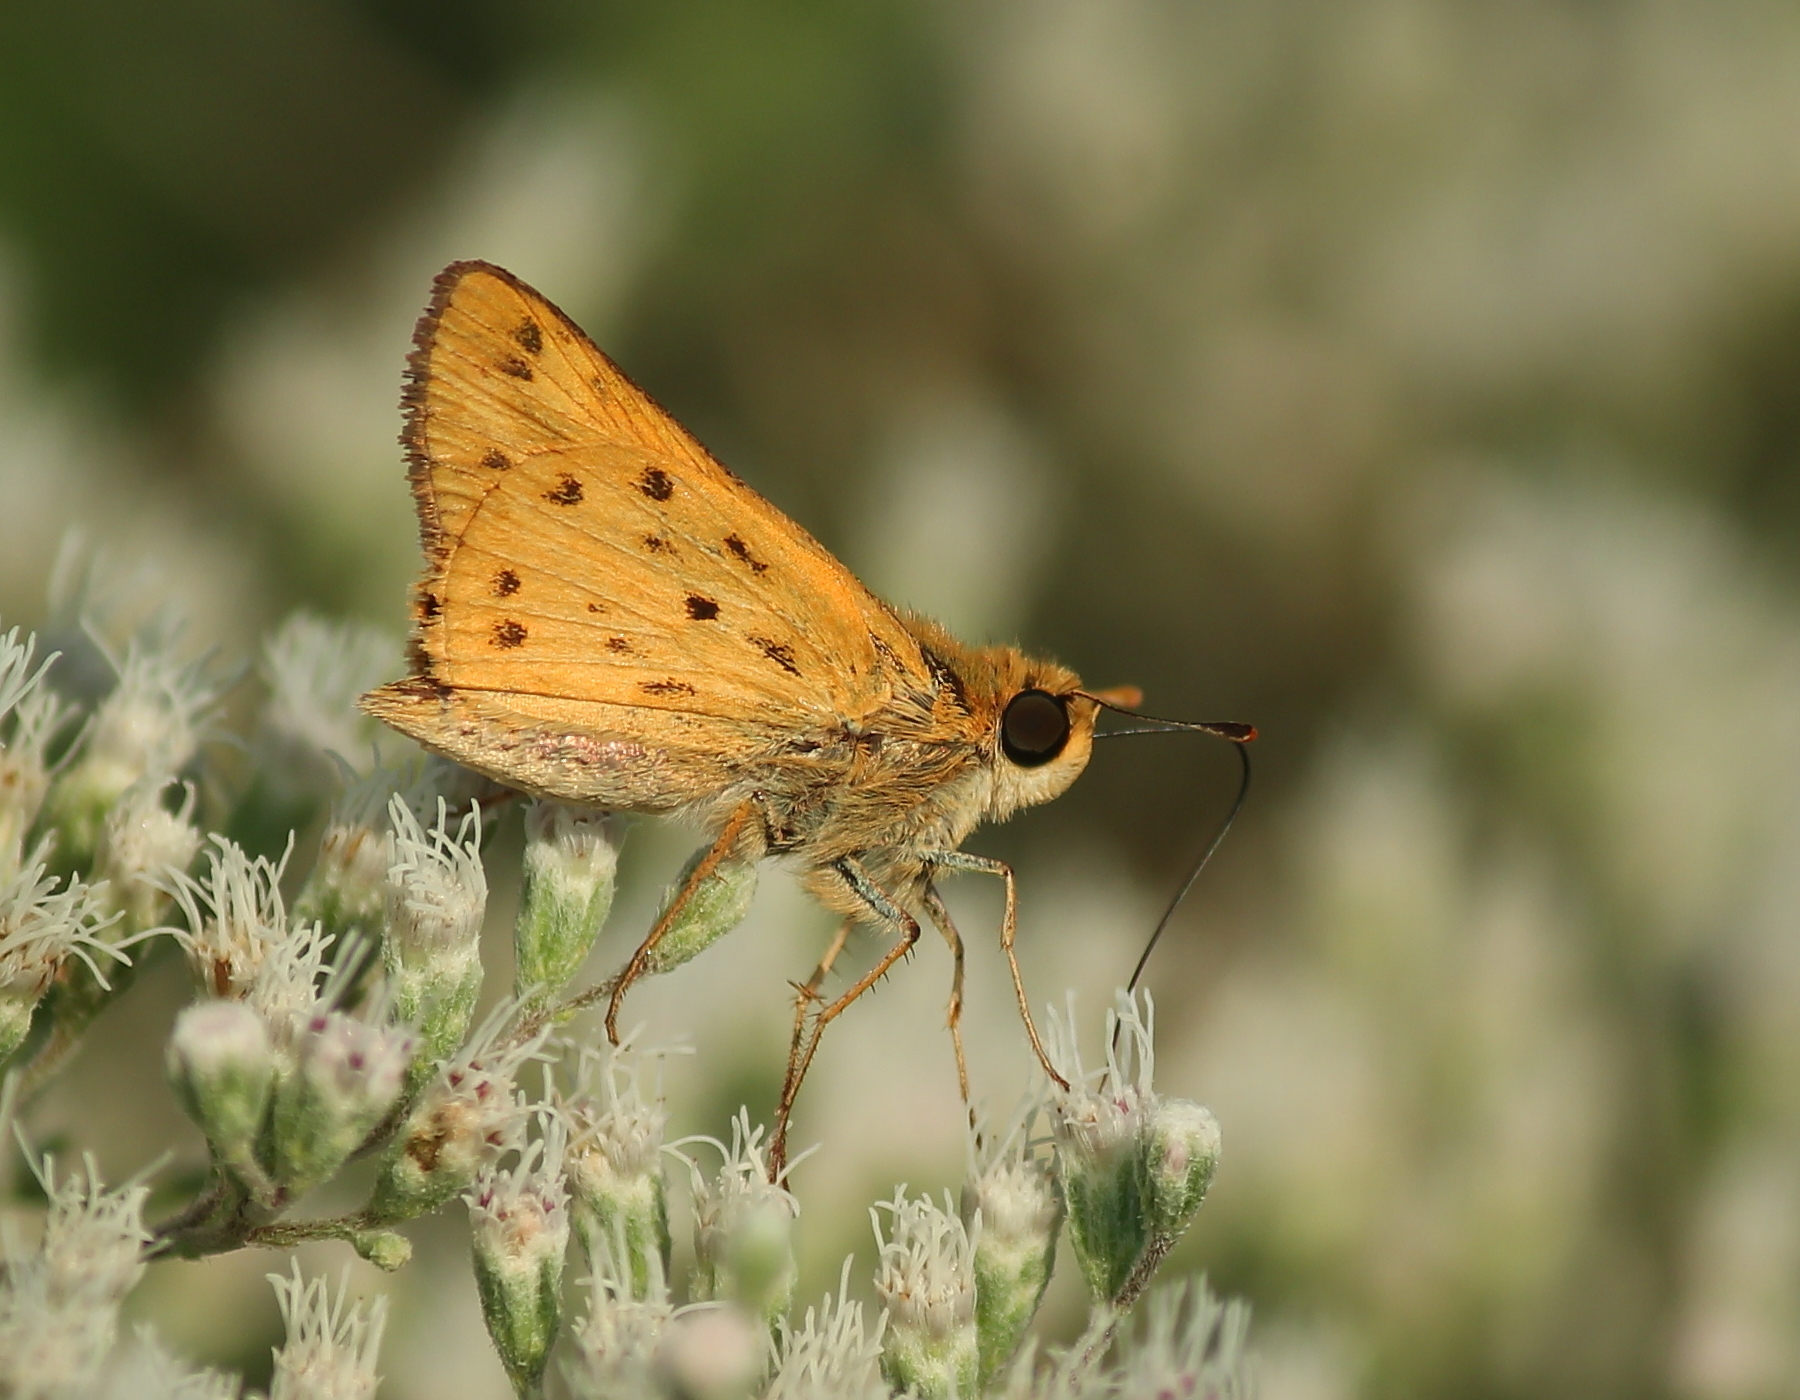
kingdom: Animalia
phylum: Arthropoda
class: Insecta
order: Lepidoptera
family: Hesperiidae
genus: Hylephila
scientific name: Hylephila phyleus
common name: Fiery skipper
